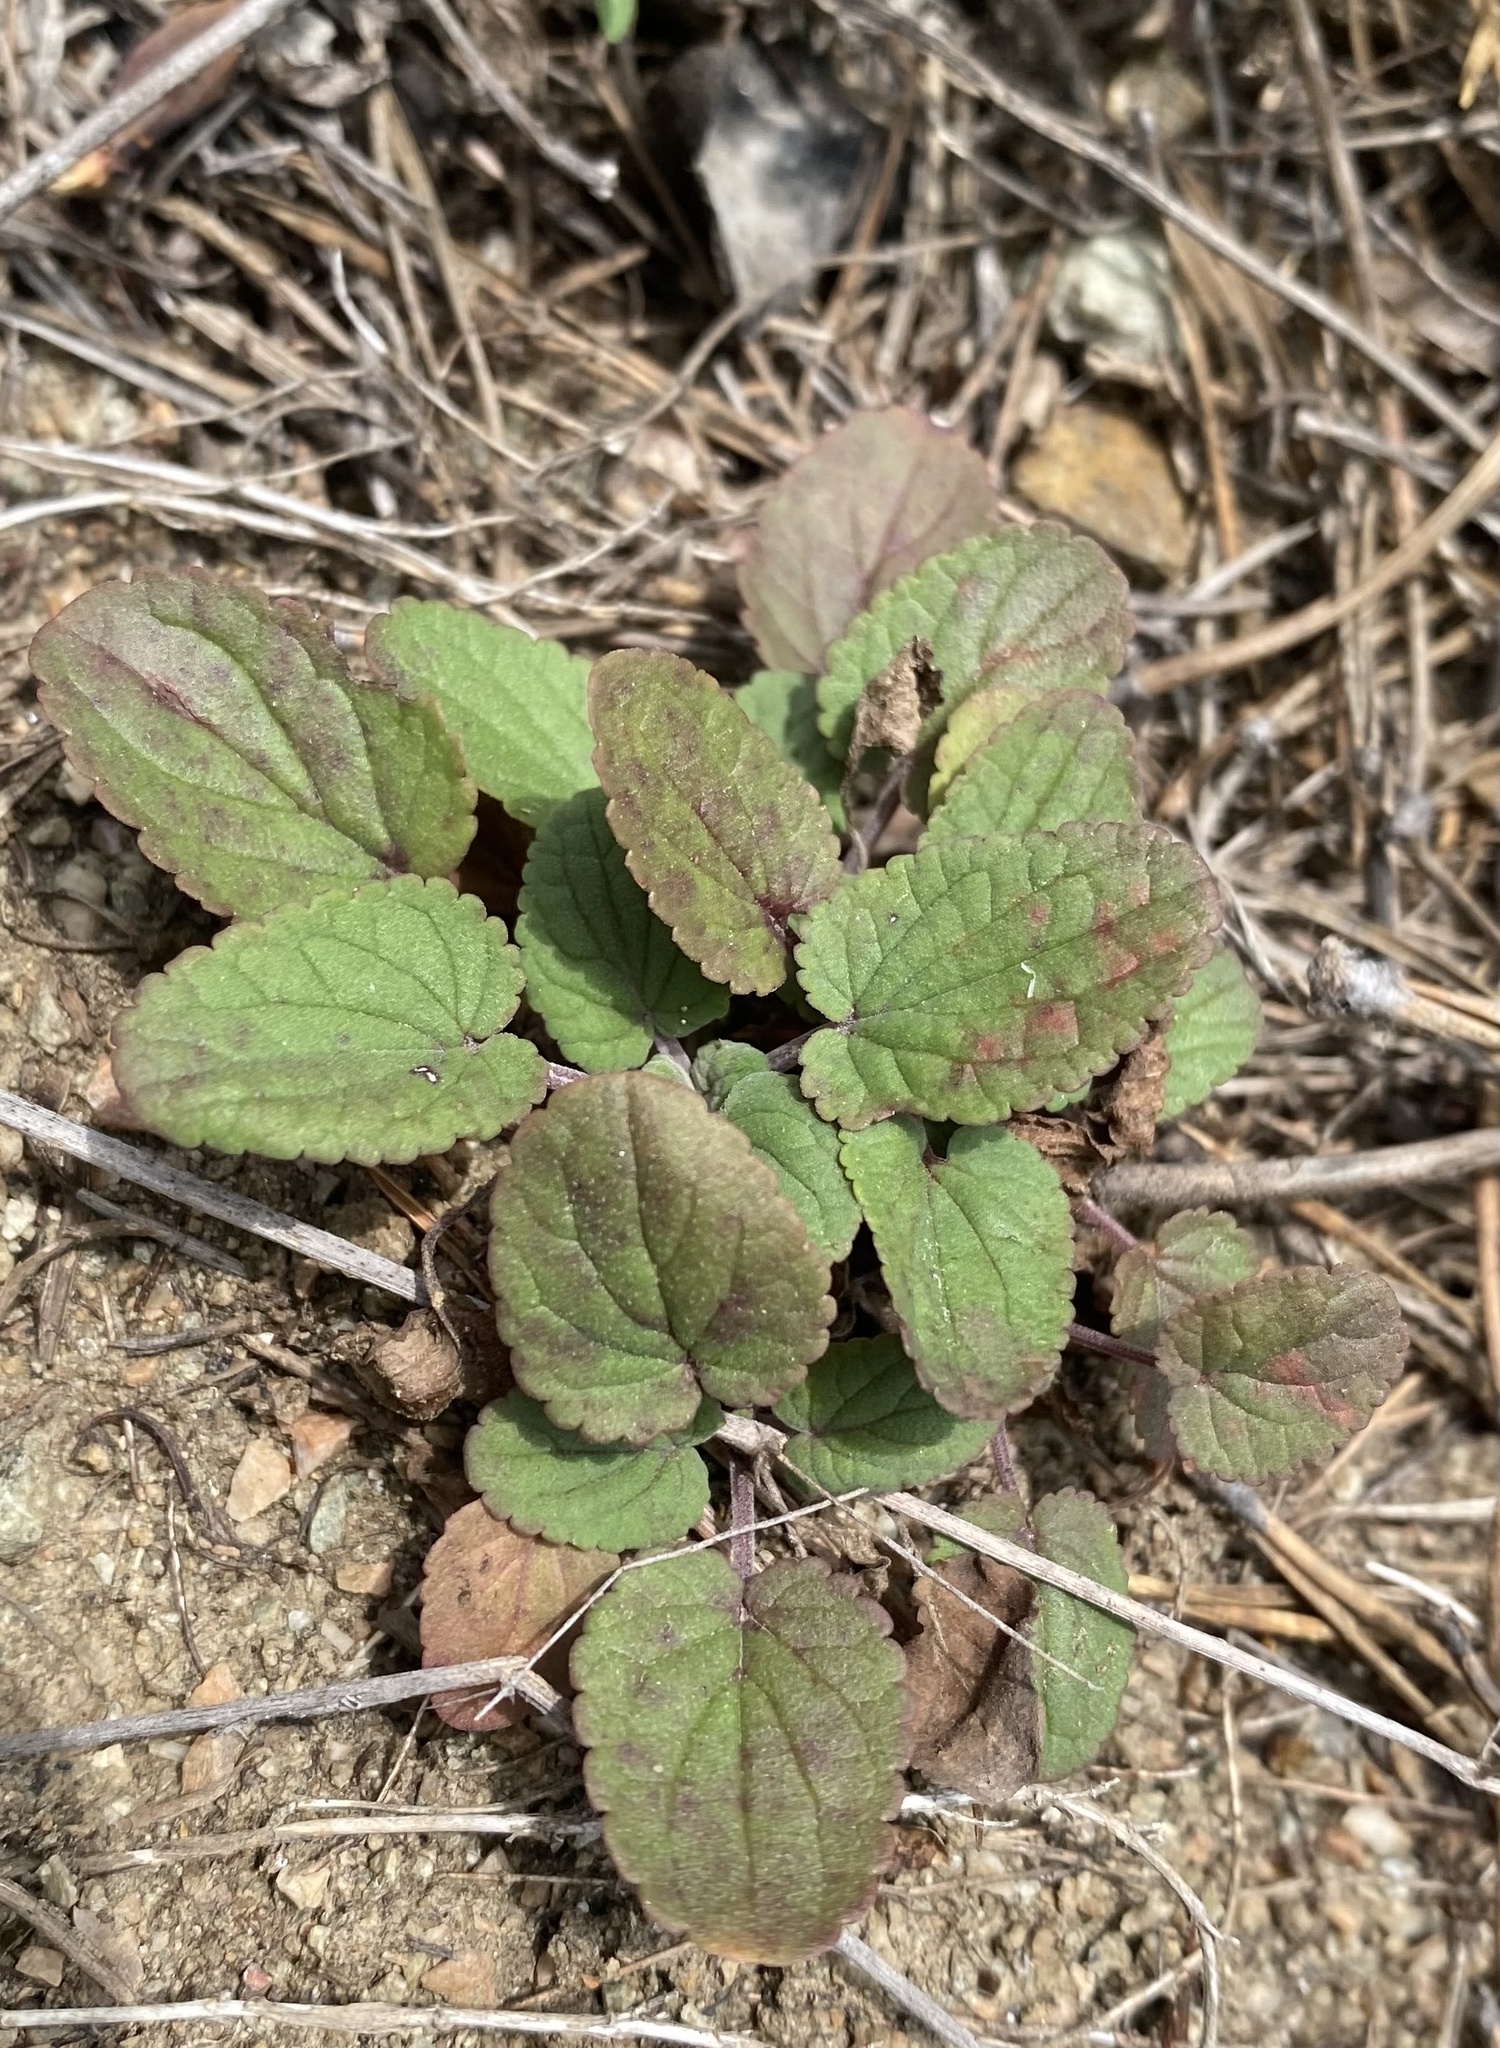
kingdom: Plantae
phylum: Tracheophyta
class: Magnoliopsida
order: Lamiales
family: Lamiaceae
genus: Dracocephalum
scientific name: Dracocephalum nutans
